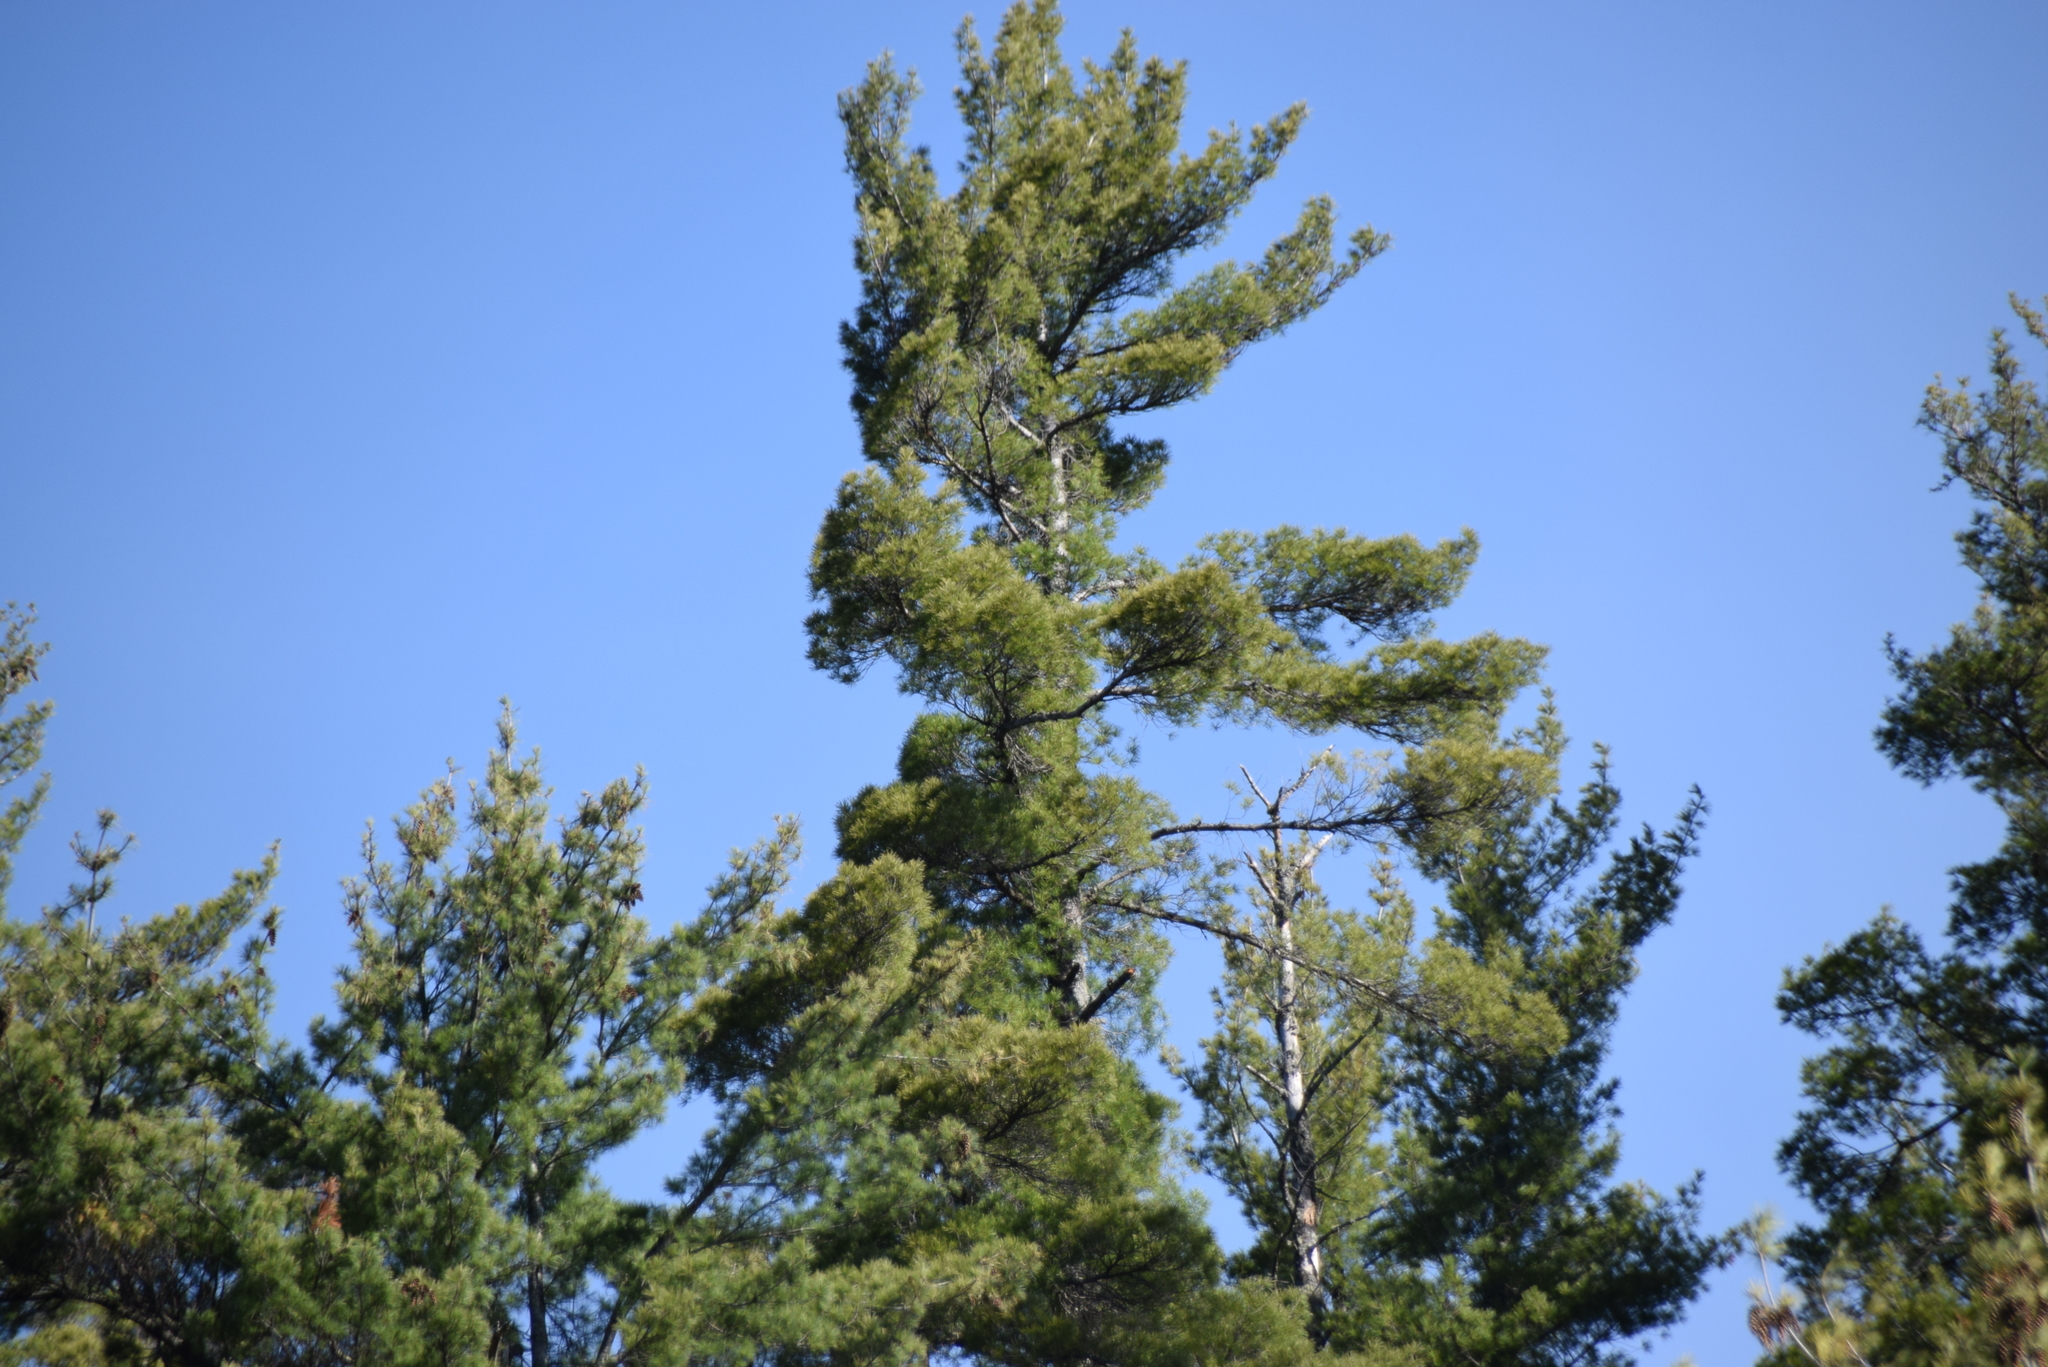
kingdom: Plantae
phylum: Tracheophyta
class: Pinopsida
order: Pinales
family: Pinaceae
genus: Pinus
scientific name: Pinus strobus
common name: Weymouth pine
